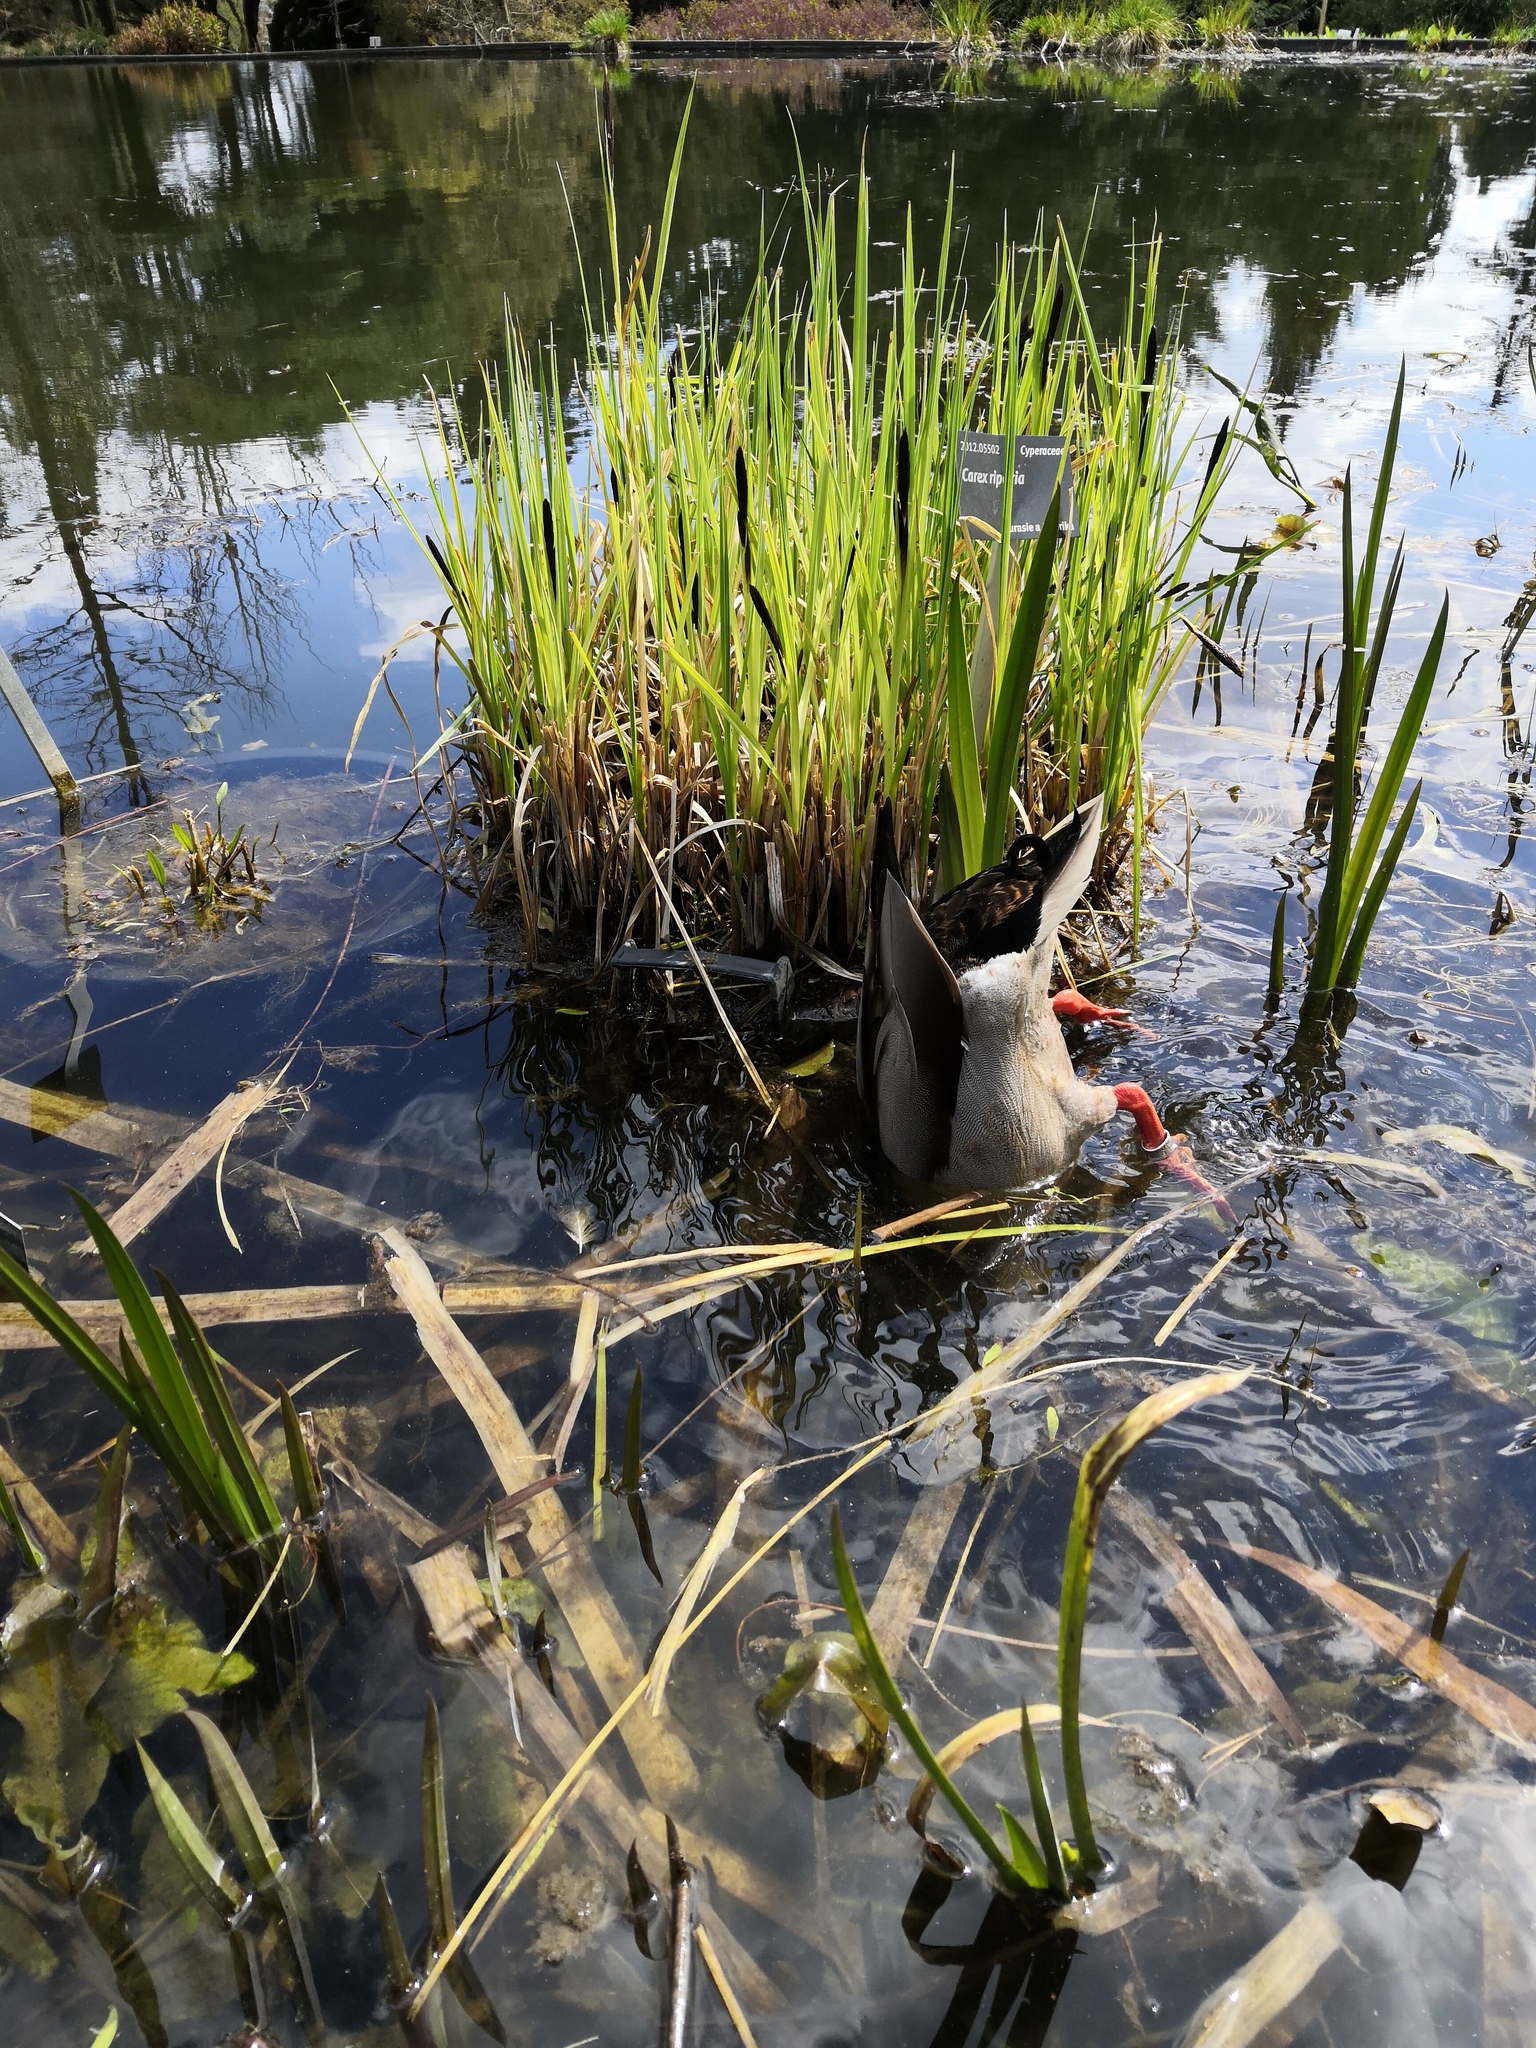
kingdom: Animalia
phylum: Chordata
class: Aves
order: Anseriformes
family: Anatidae
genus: Anas
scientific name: Anas platyrhynchos
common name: Mallard
